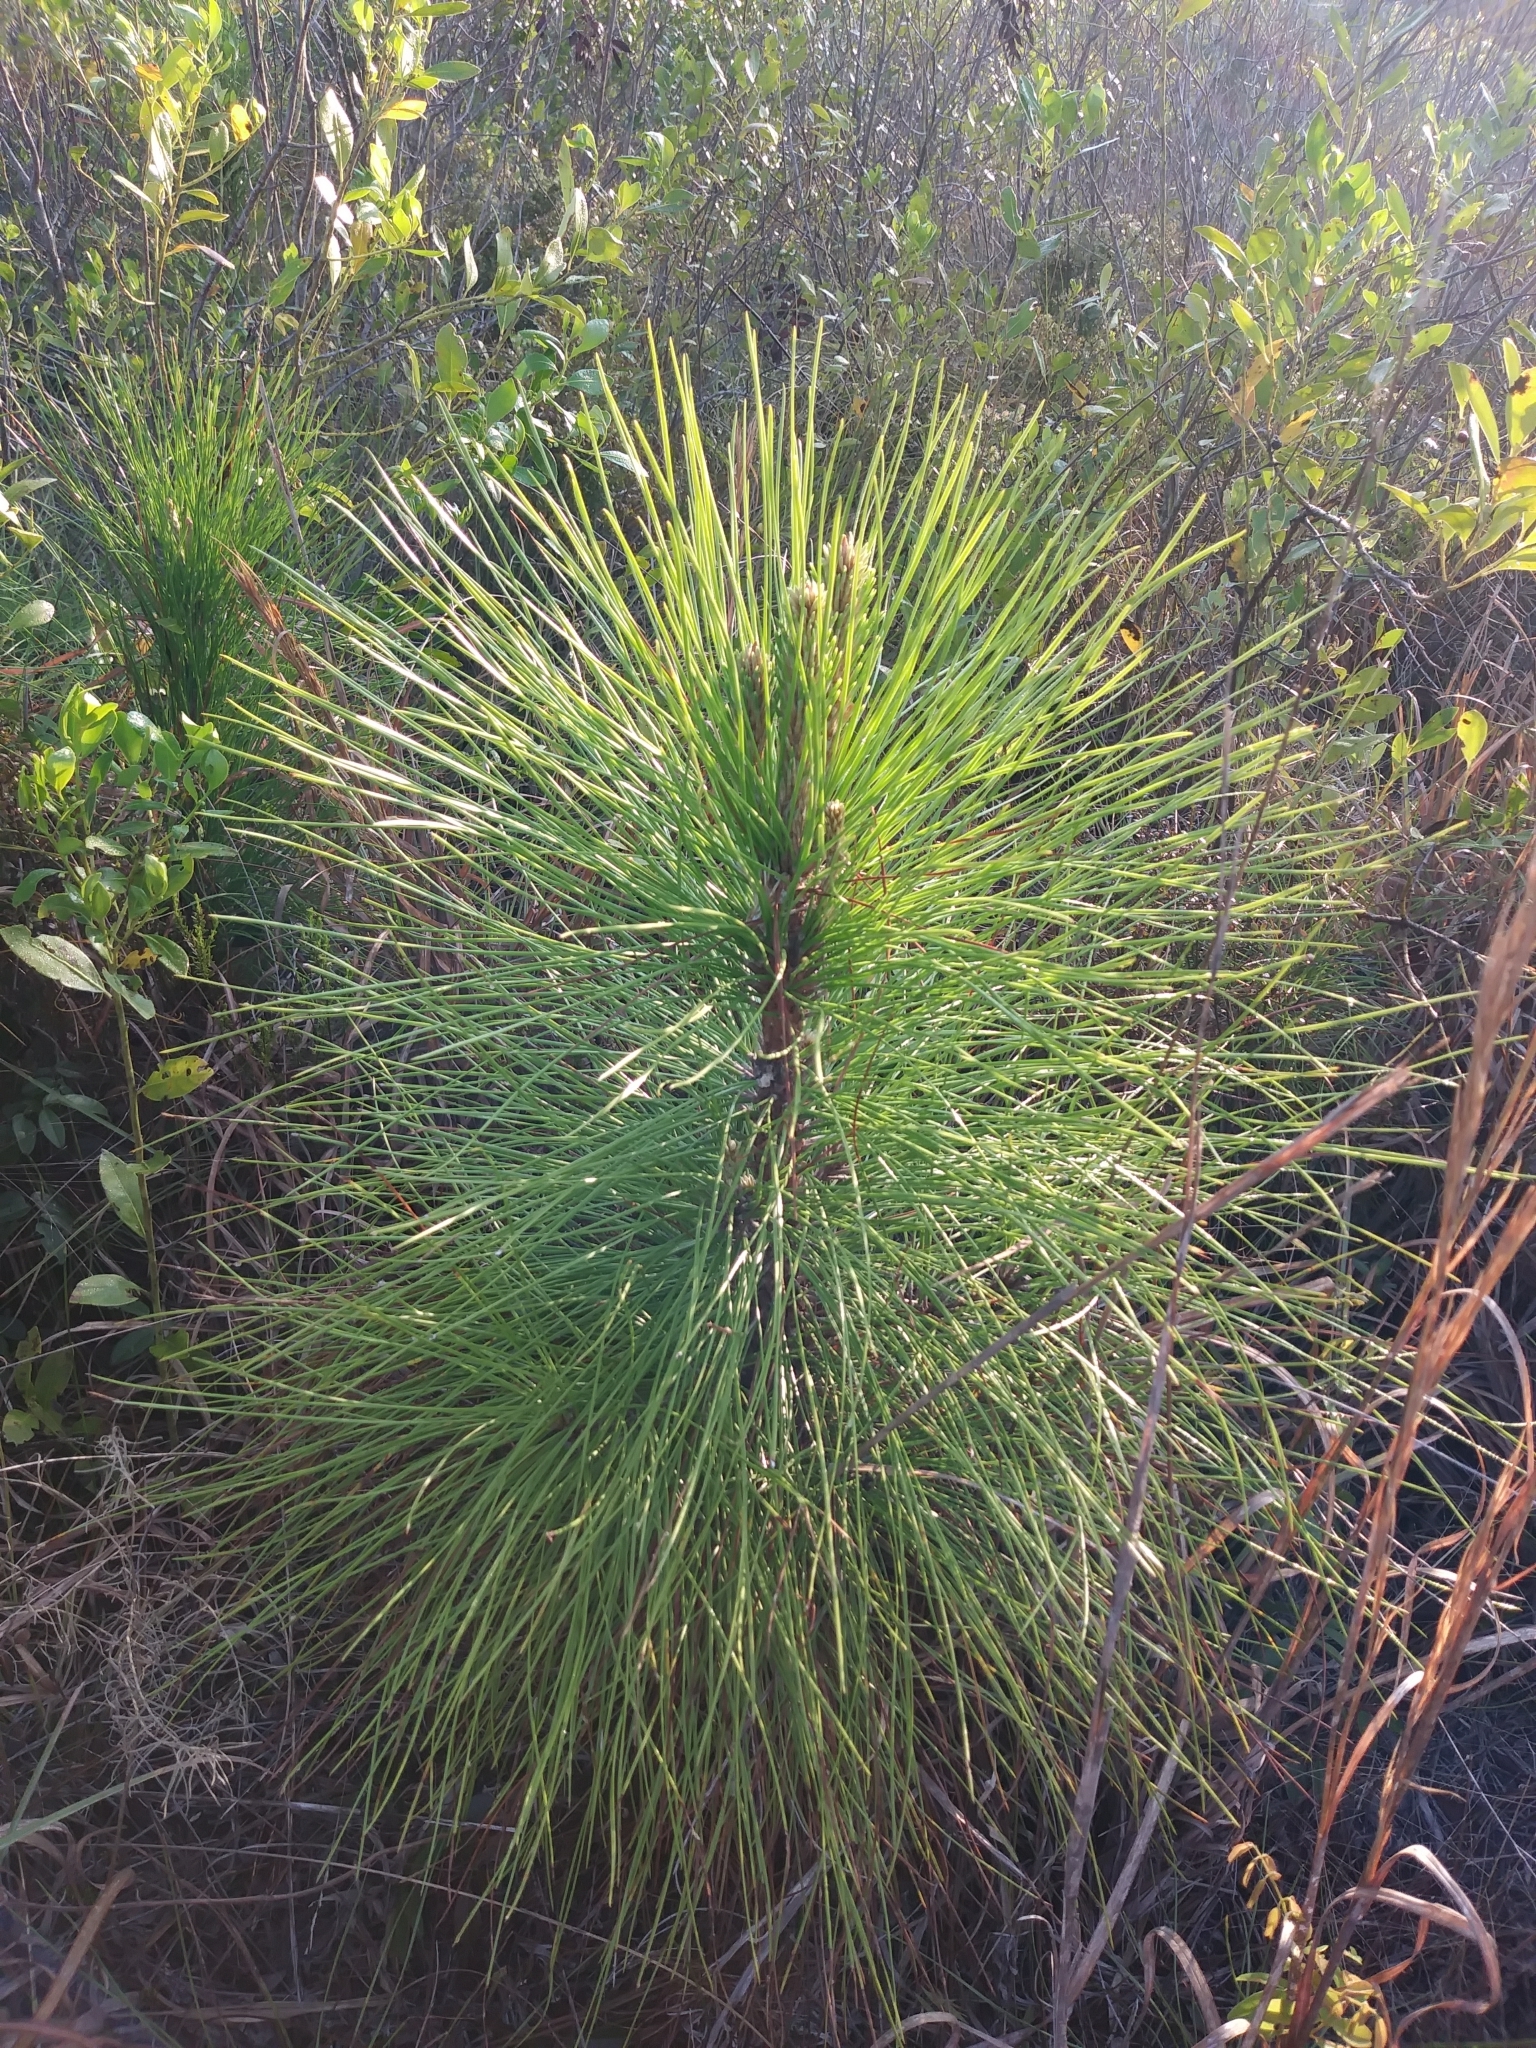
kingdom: Plantae
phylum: Tracheophyta
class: Pinopsida
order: Pinales
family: Pinaceae
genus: Pinus
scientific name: Pinus palustris
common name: Longleaf pine
